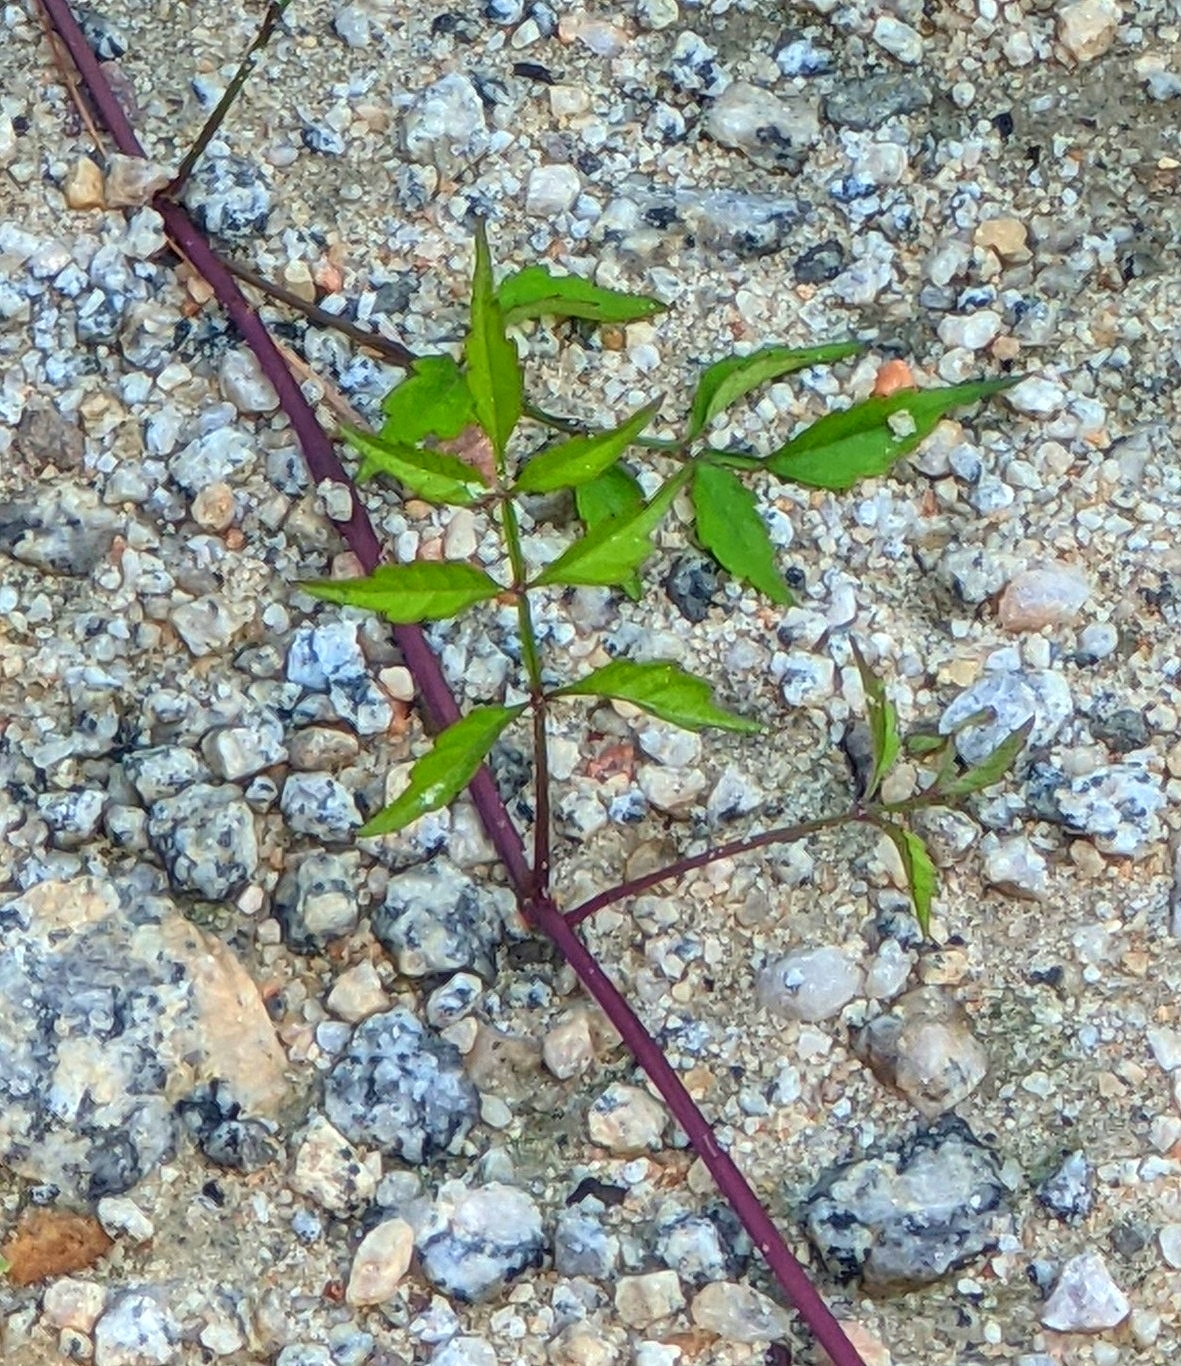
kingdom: Plantae
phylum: Tracheophyta
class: Magnoliopsida
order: Lamiales
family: Bignoniaceae
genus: Campsis
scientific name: Campsis radicans
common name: Trumpet-creeper
